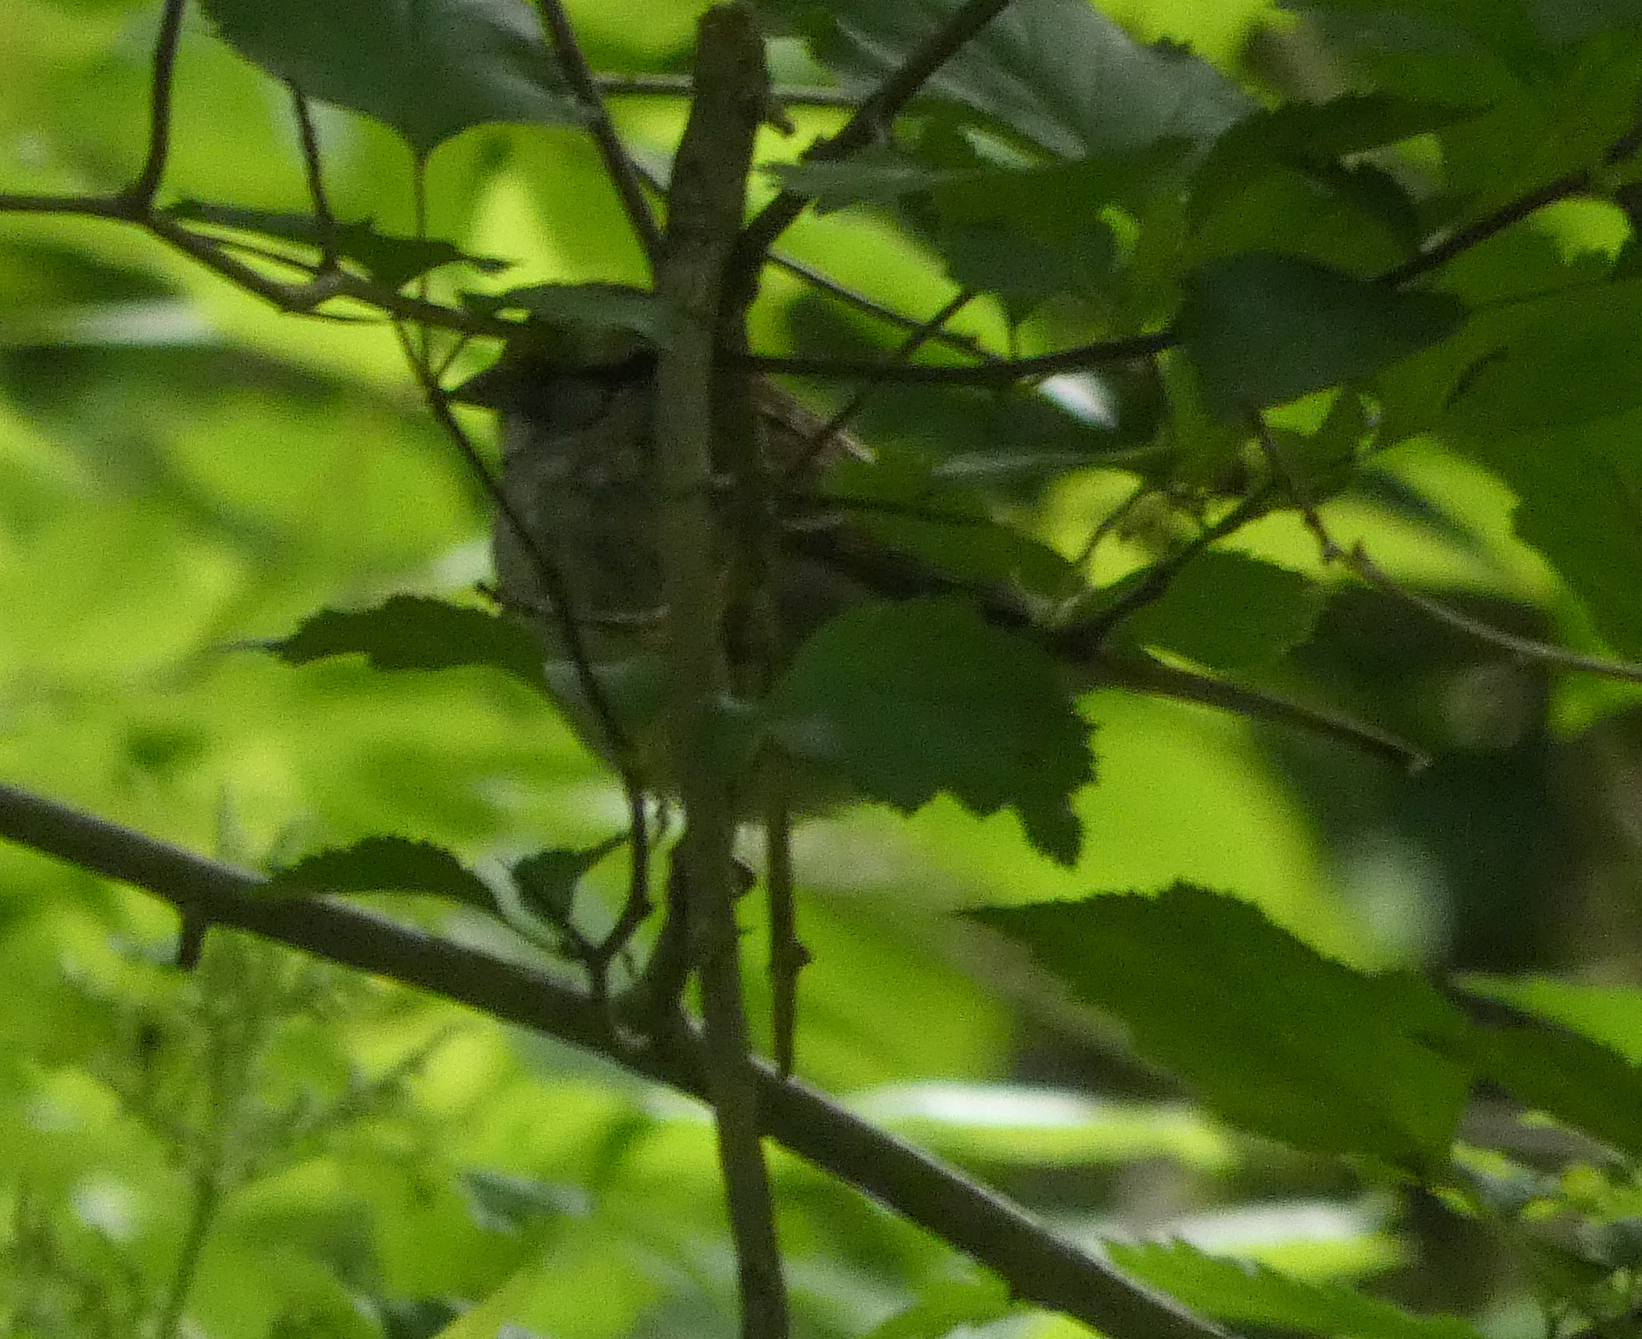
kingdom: Animalia
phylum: Chordata
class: Aves
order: Passeriformes
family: Passerellidae
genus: Zonotrichia
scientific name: Zonotrichia albicollis
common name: White-throated sparrow
